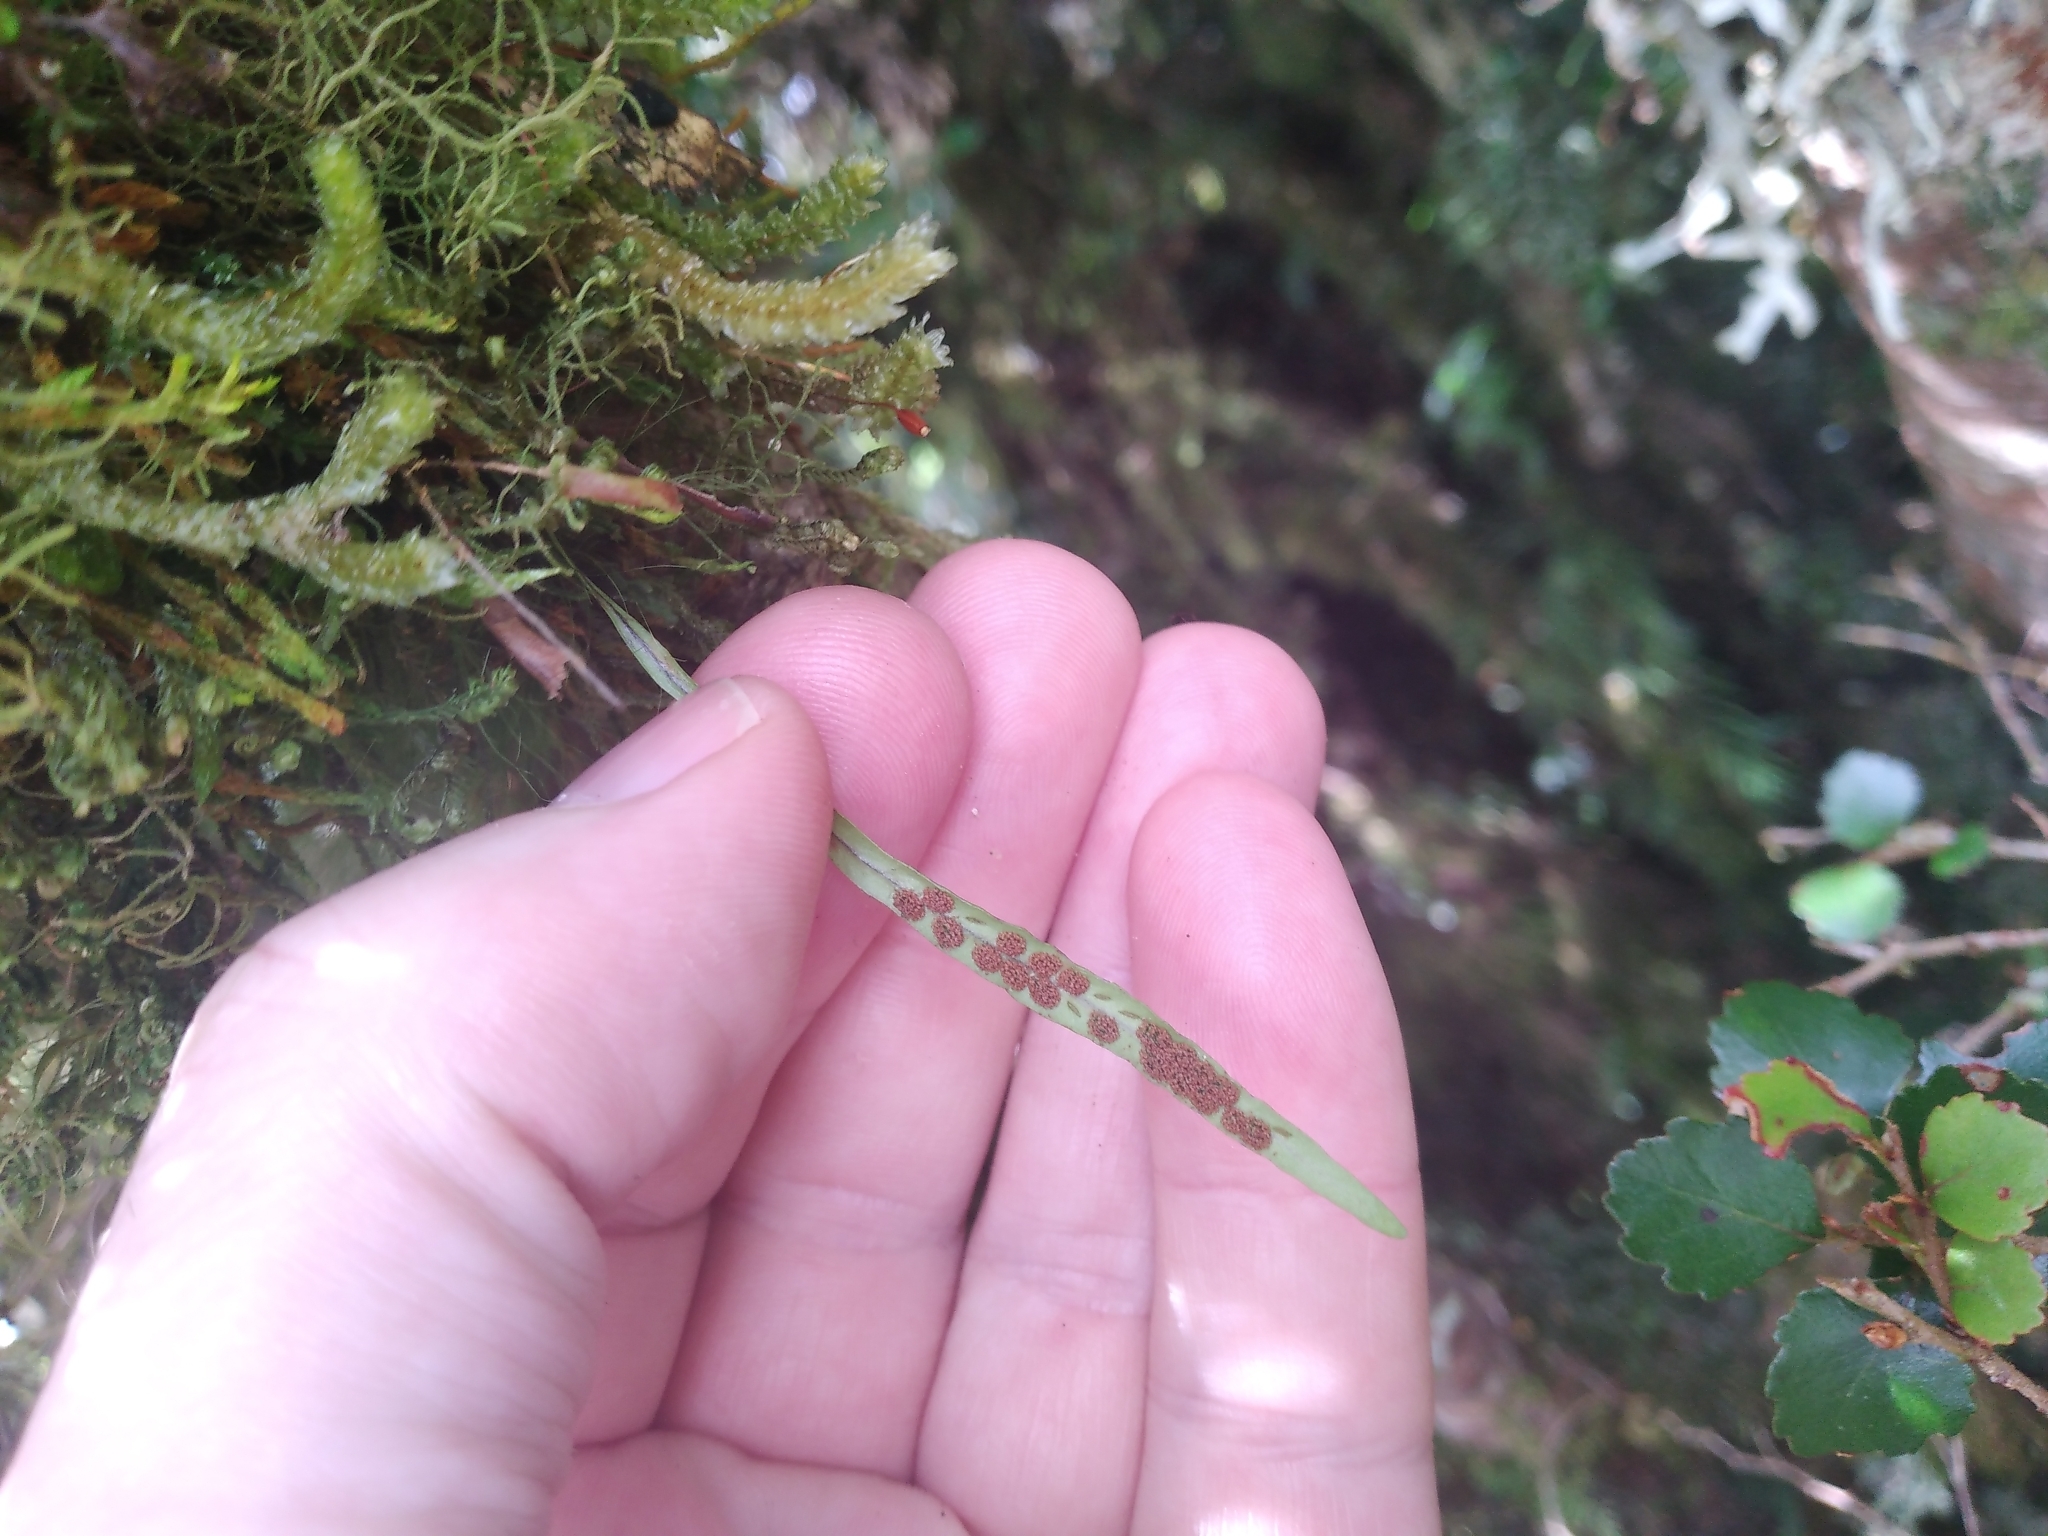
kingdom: Plantae
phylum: Tracheophyta
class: Polypodiopsida
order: Polypodiales
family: Polypodiaceae
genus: Notogrammitis
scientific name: Notogrammitis angustifolia
